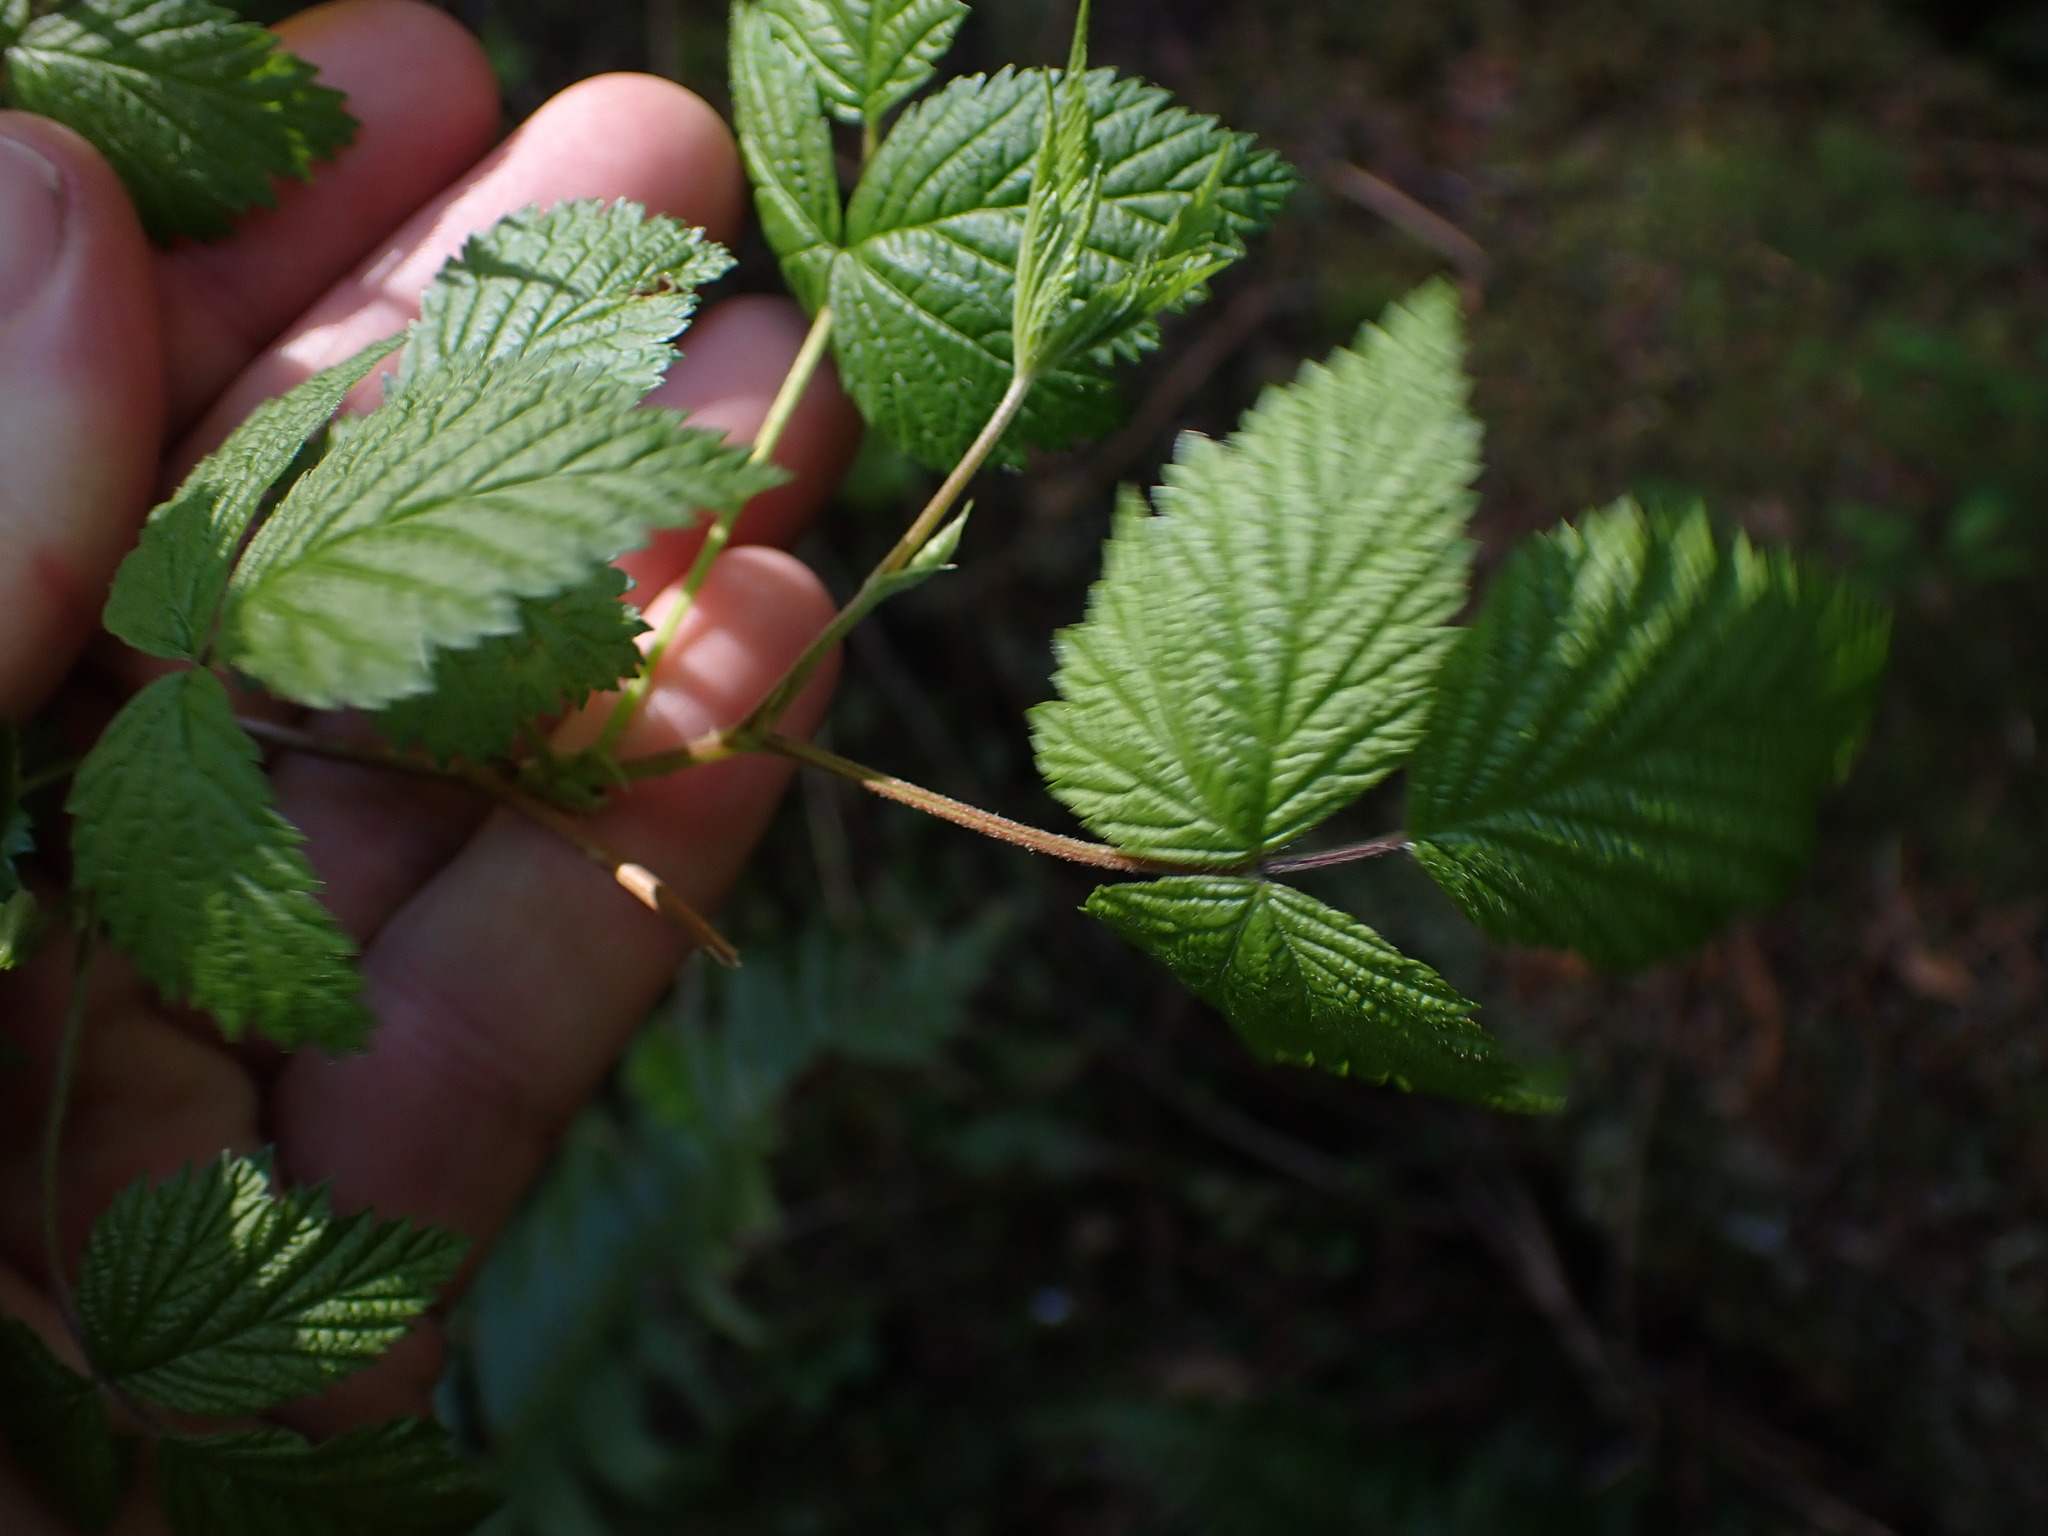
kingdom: Plantae
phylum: Tracheophyta
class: Magnoliopsida
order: Rosales
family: Rosaceae
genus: Rubus
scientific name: Rubus spectabilis
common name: Salmonberry
